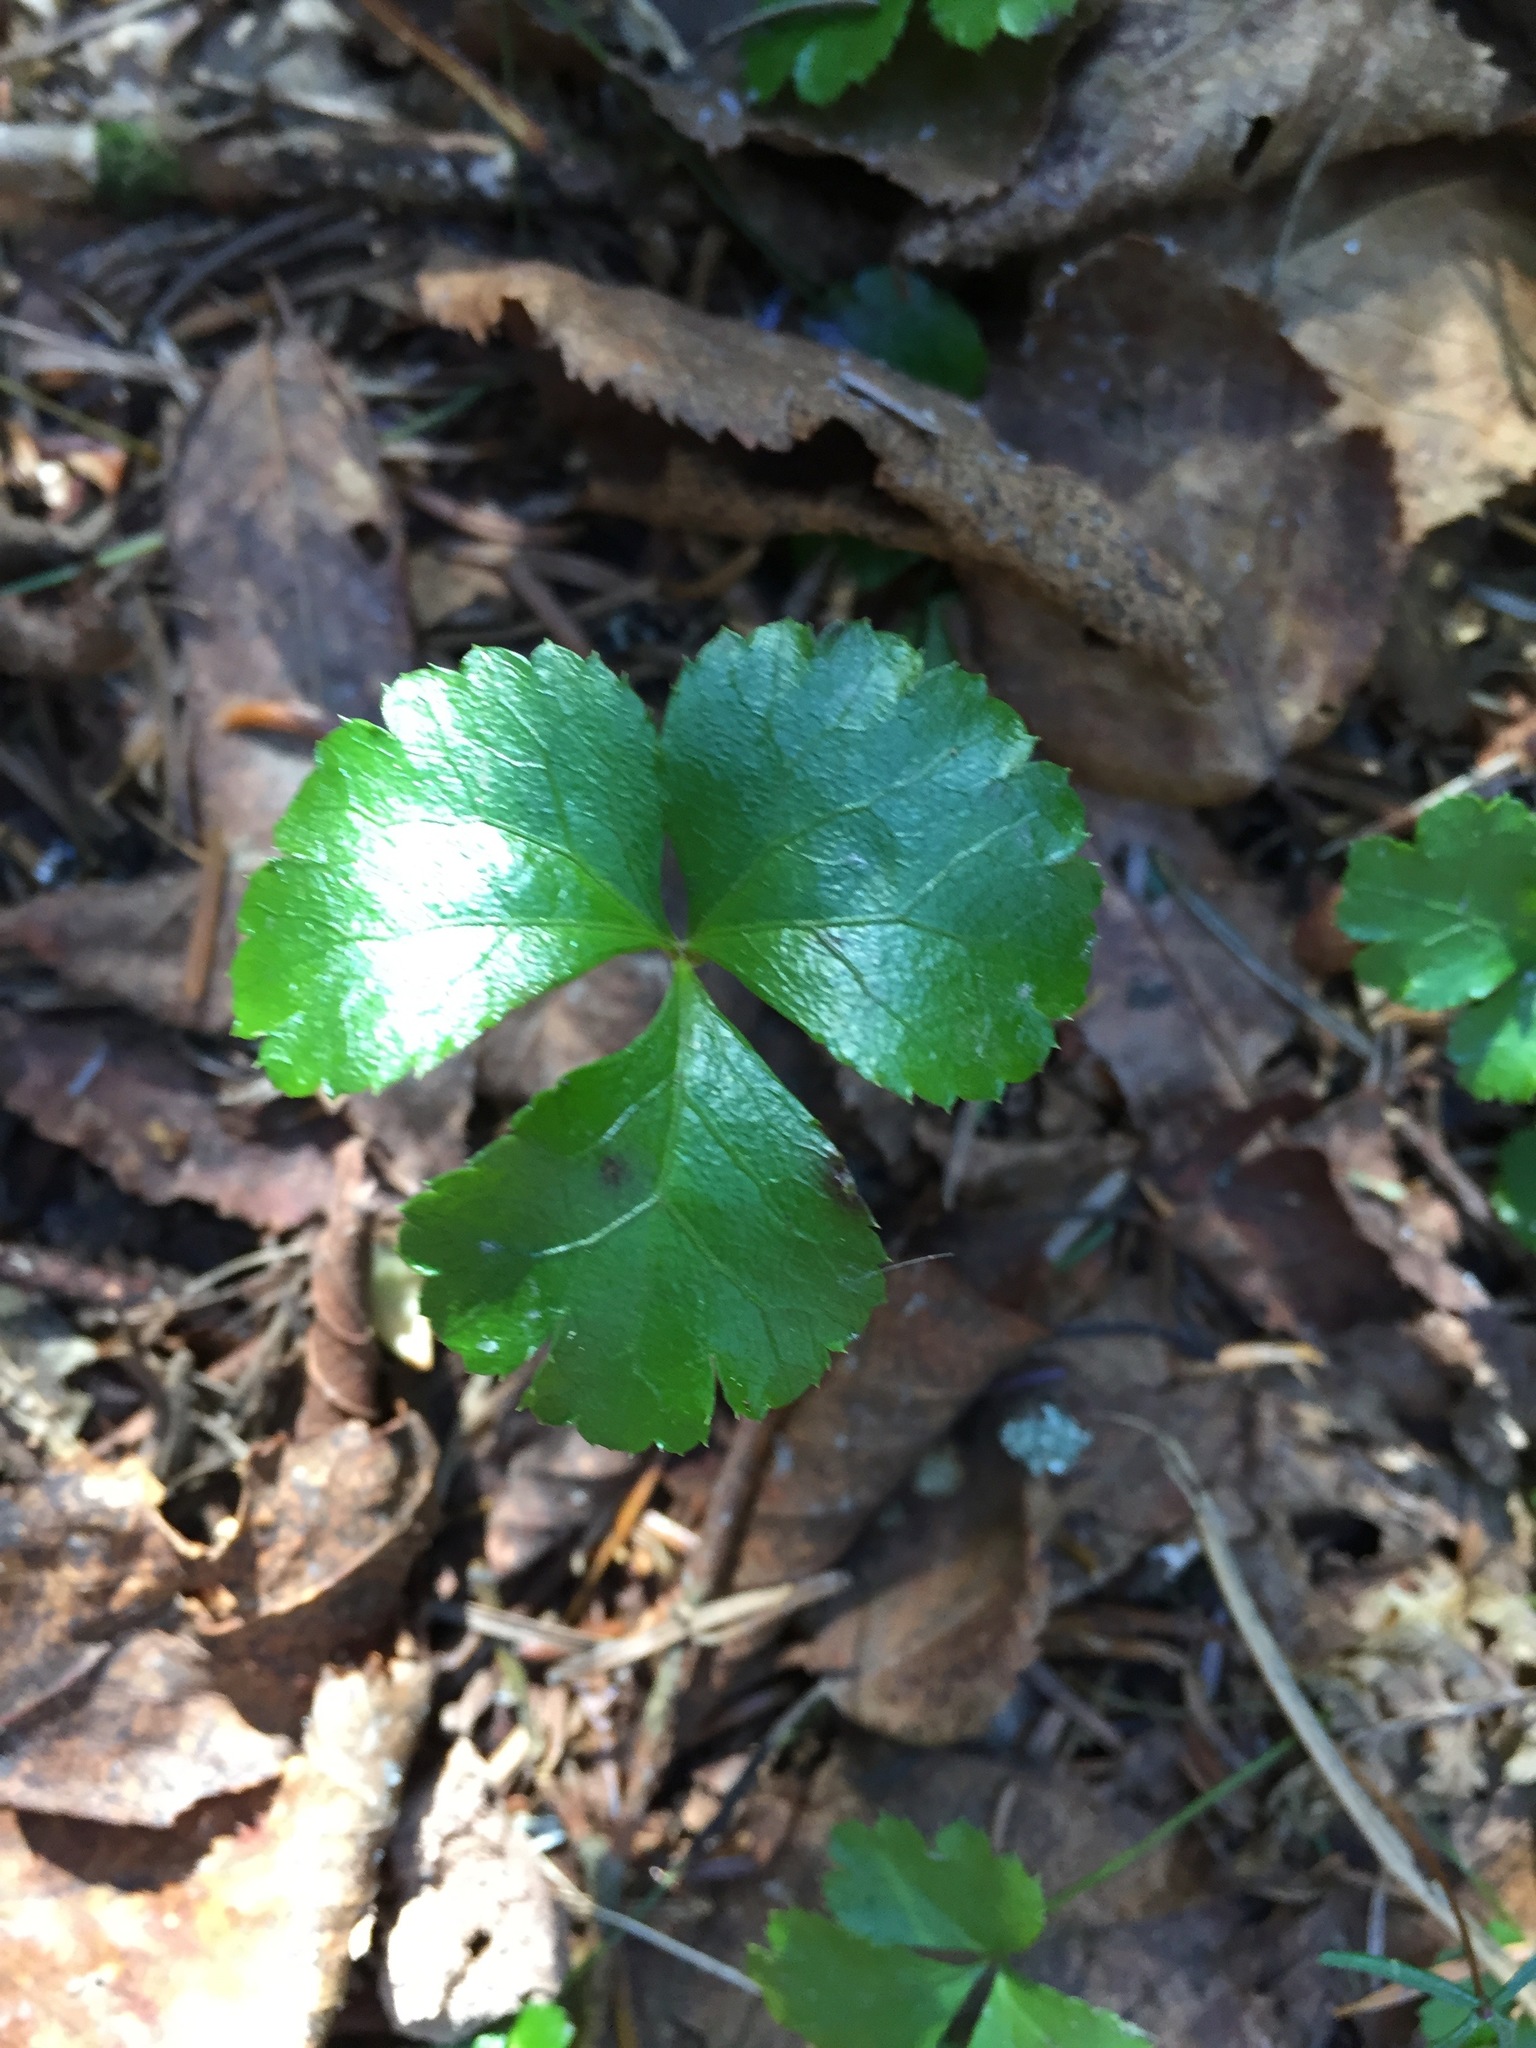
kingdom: Plantae
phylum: Tracheophyta
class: Magnoliopsida
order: Ranunculales
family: Ranunculaceae
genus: Coptis
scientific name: Coptis trifolia
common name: Canker-root
